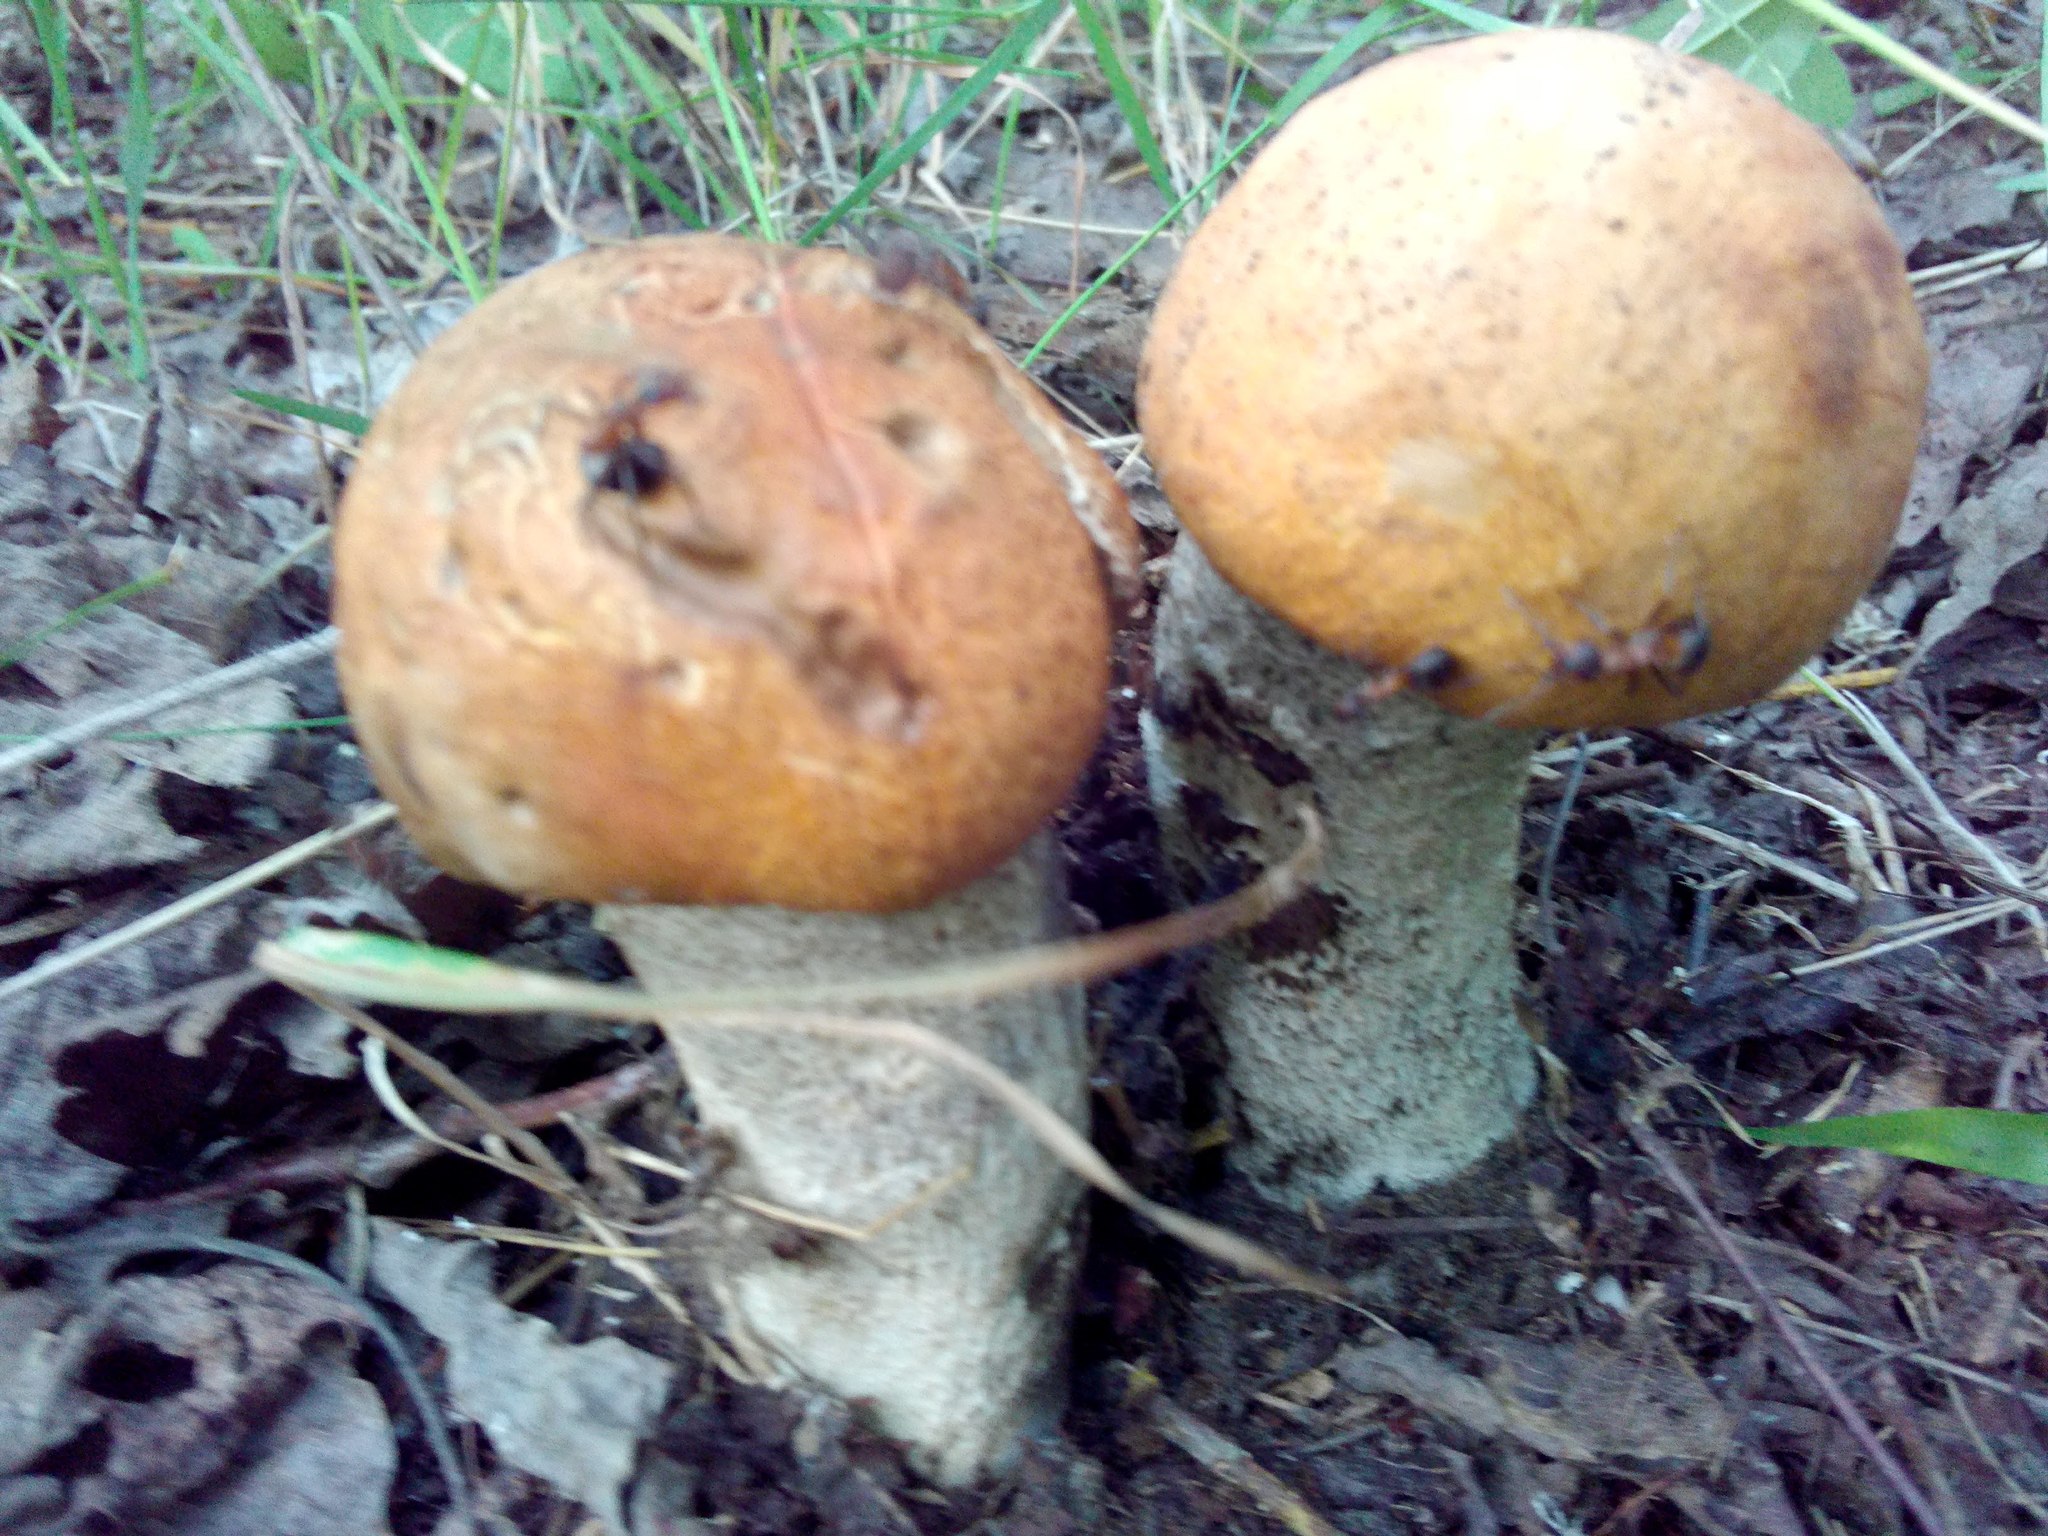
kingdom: Fungi
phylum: Basidiomycota
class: Agaricomycetes
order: Boletales
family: Boletaceae
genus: Leccinum
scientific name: Leccinum albostipitatum
